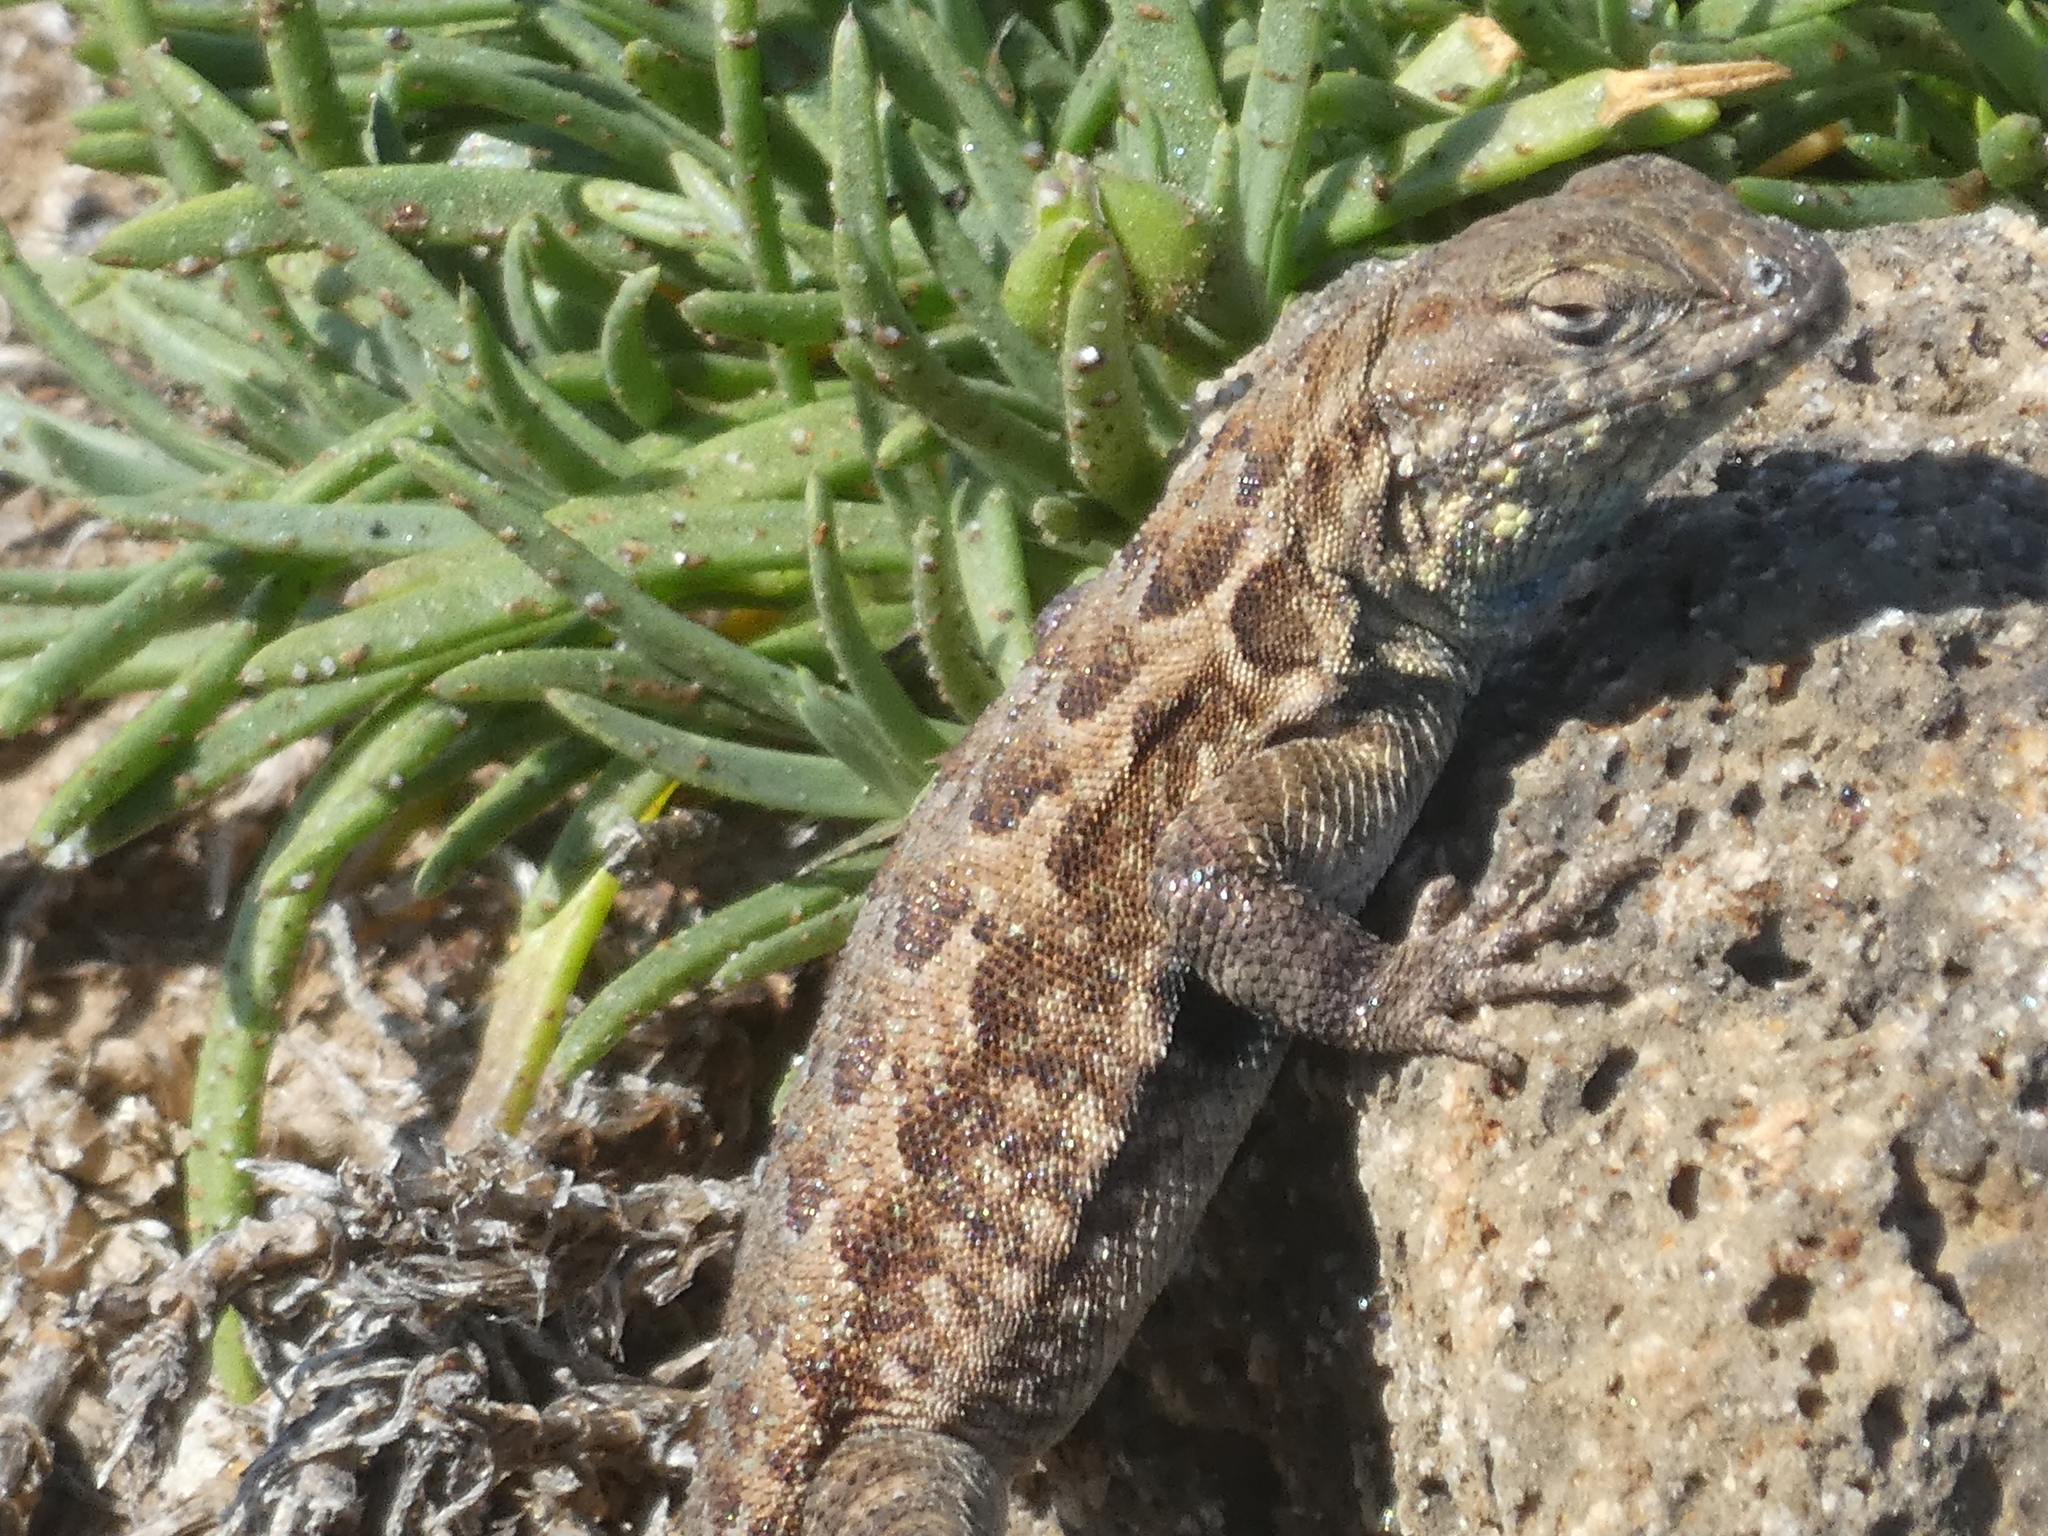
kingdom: Animalia
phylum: Chordata
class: Squamata
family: Phrynosomatidae
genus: Uta
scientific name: Uta stansburiana
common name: Side-blotched lizard
